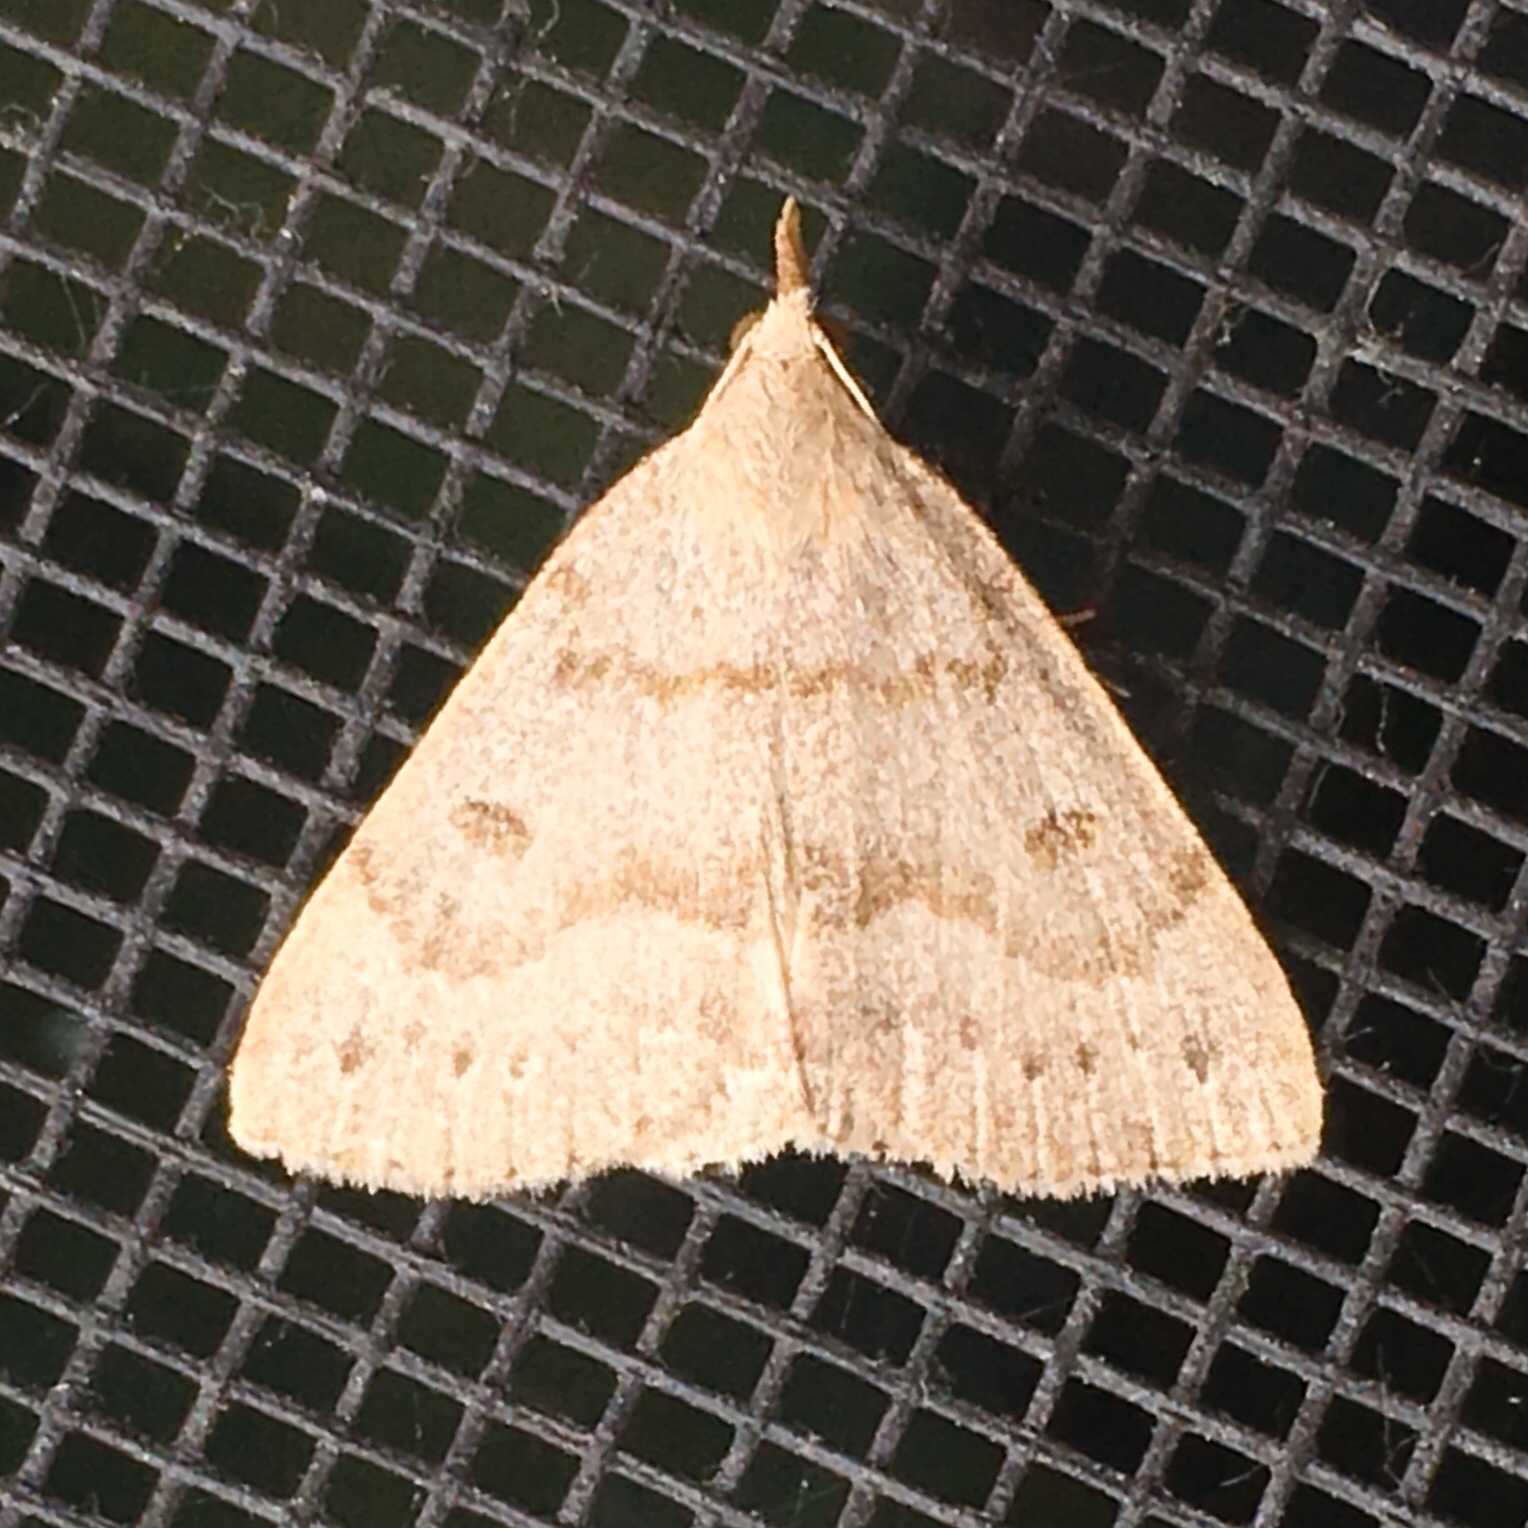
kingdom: Animalia
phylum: Arthropoda
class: Insecta
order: Lepidoptera
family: Erebidae
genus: Macrochilo
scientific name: Macrochilo morbidalis
